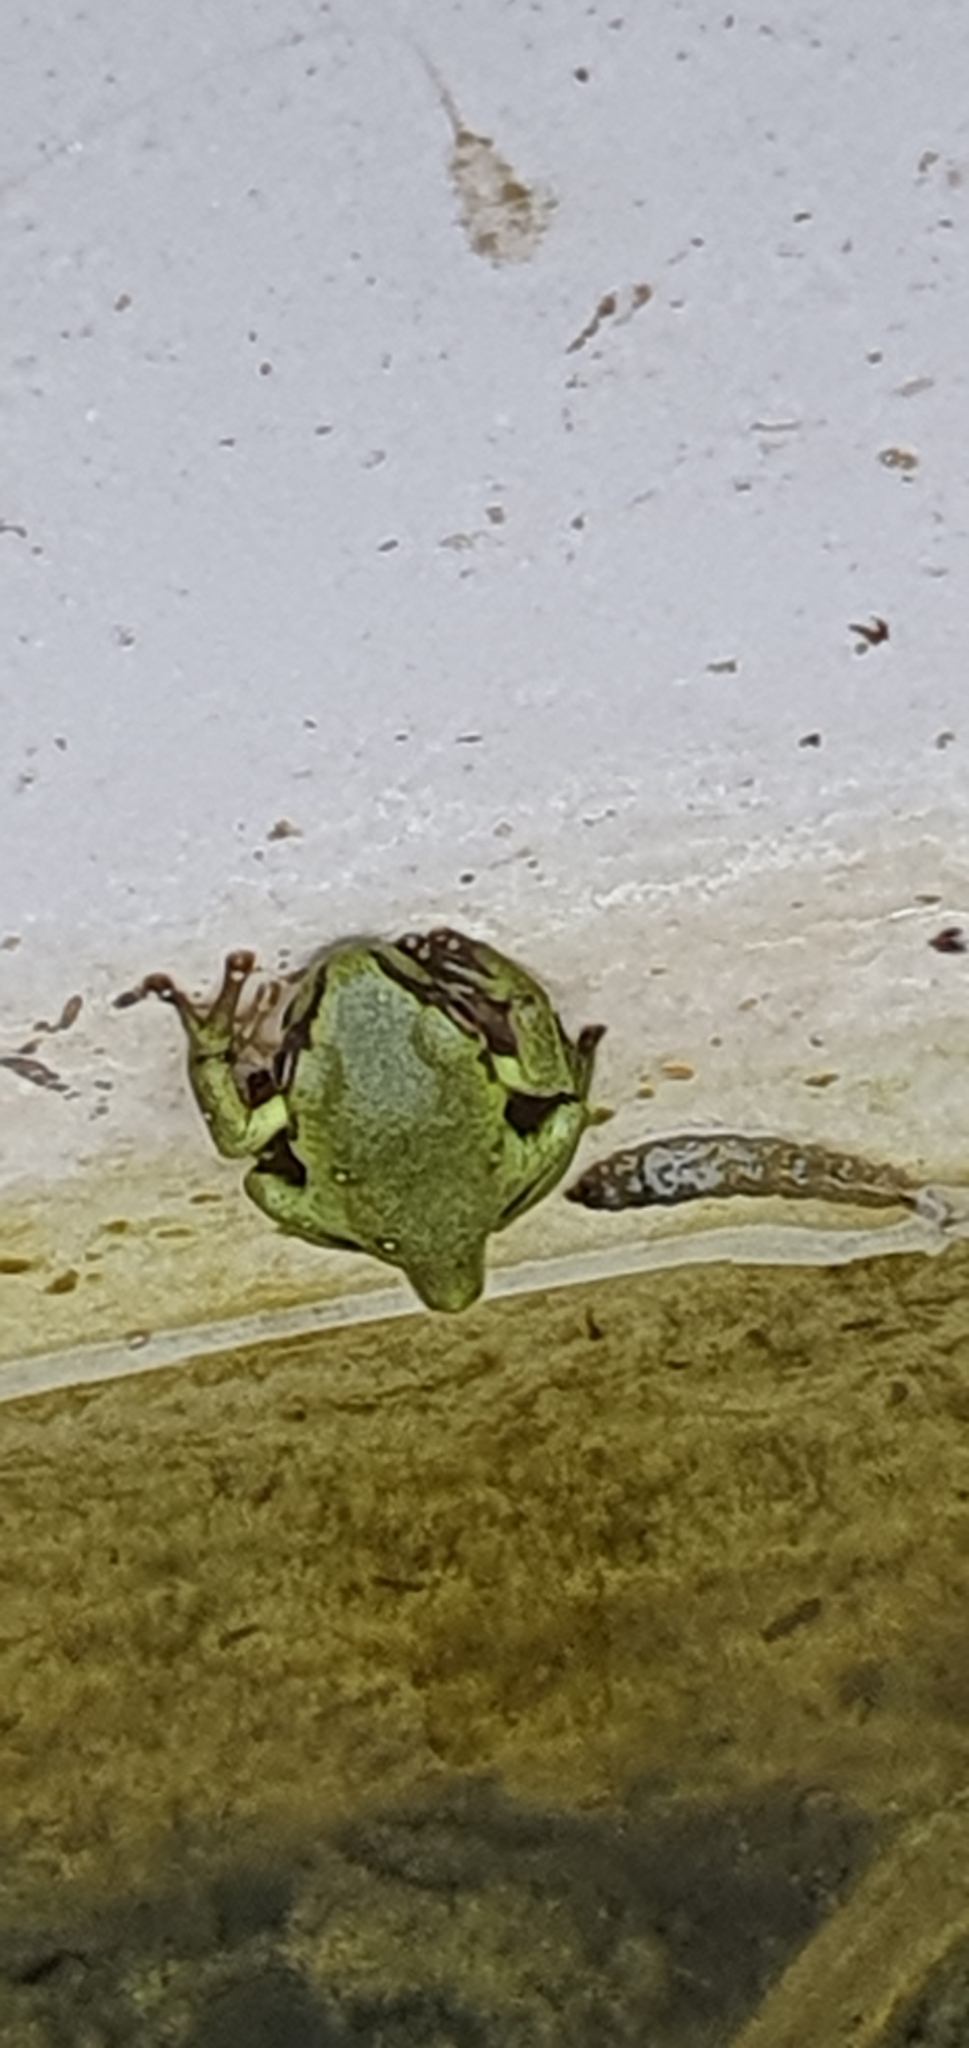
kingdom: Animalia
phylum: Chordata
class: Amphibia
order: Anura
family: Pelodryadidae
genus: Ranoidea
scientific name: Ranoidea caerulea
